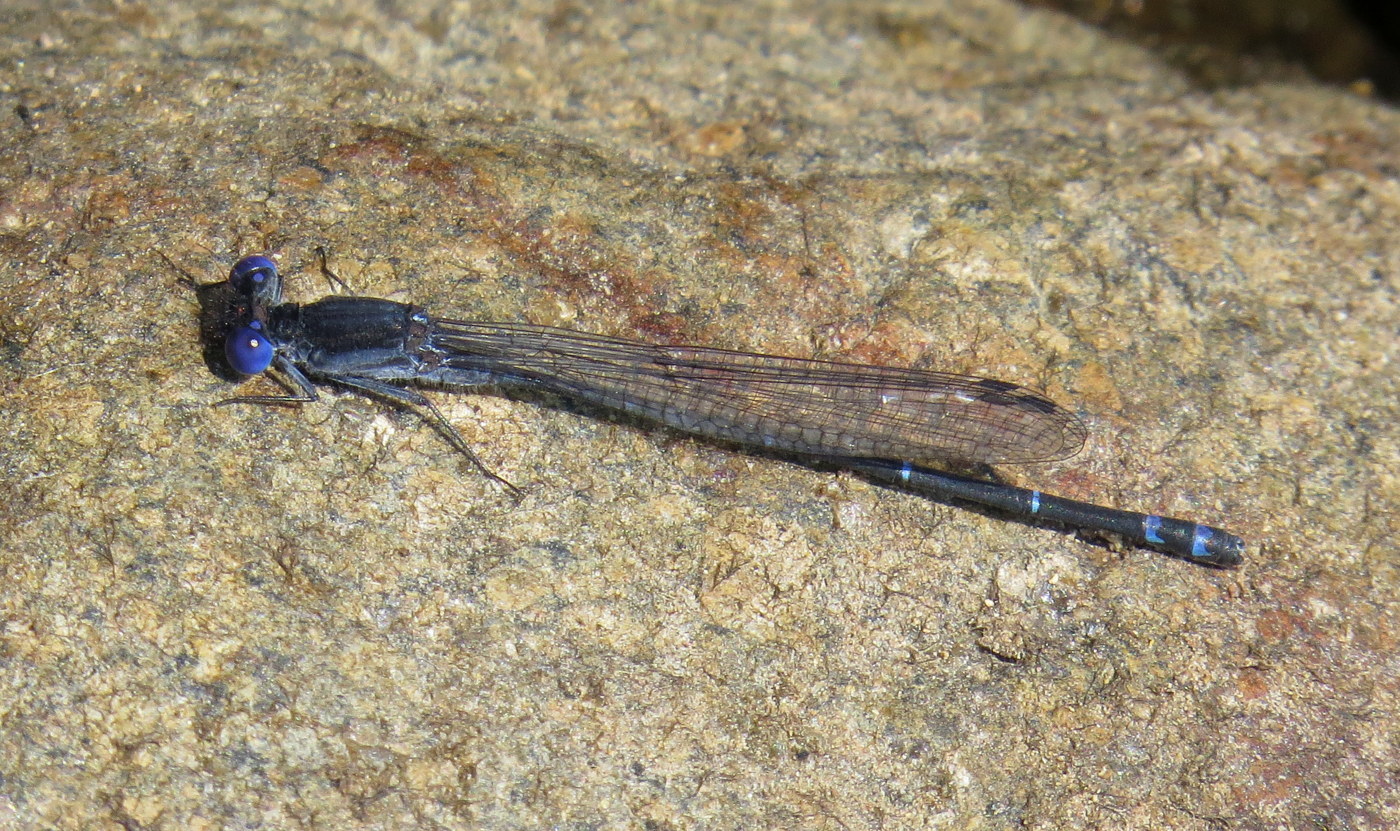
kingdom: Animalia
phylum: Arthropoda
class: Insecta
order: Odonata
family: Coenagrionidae
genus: Argia
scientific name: Argia translata
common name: Dusky dancer
